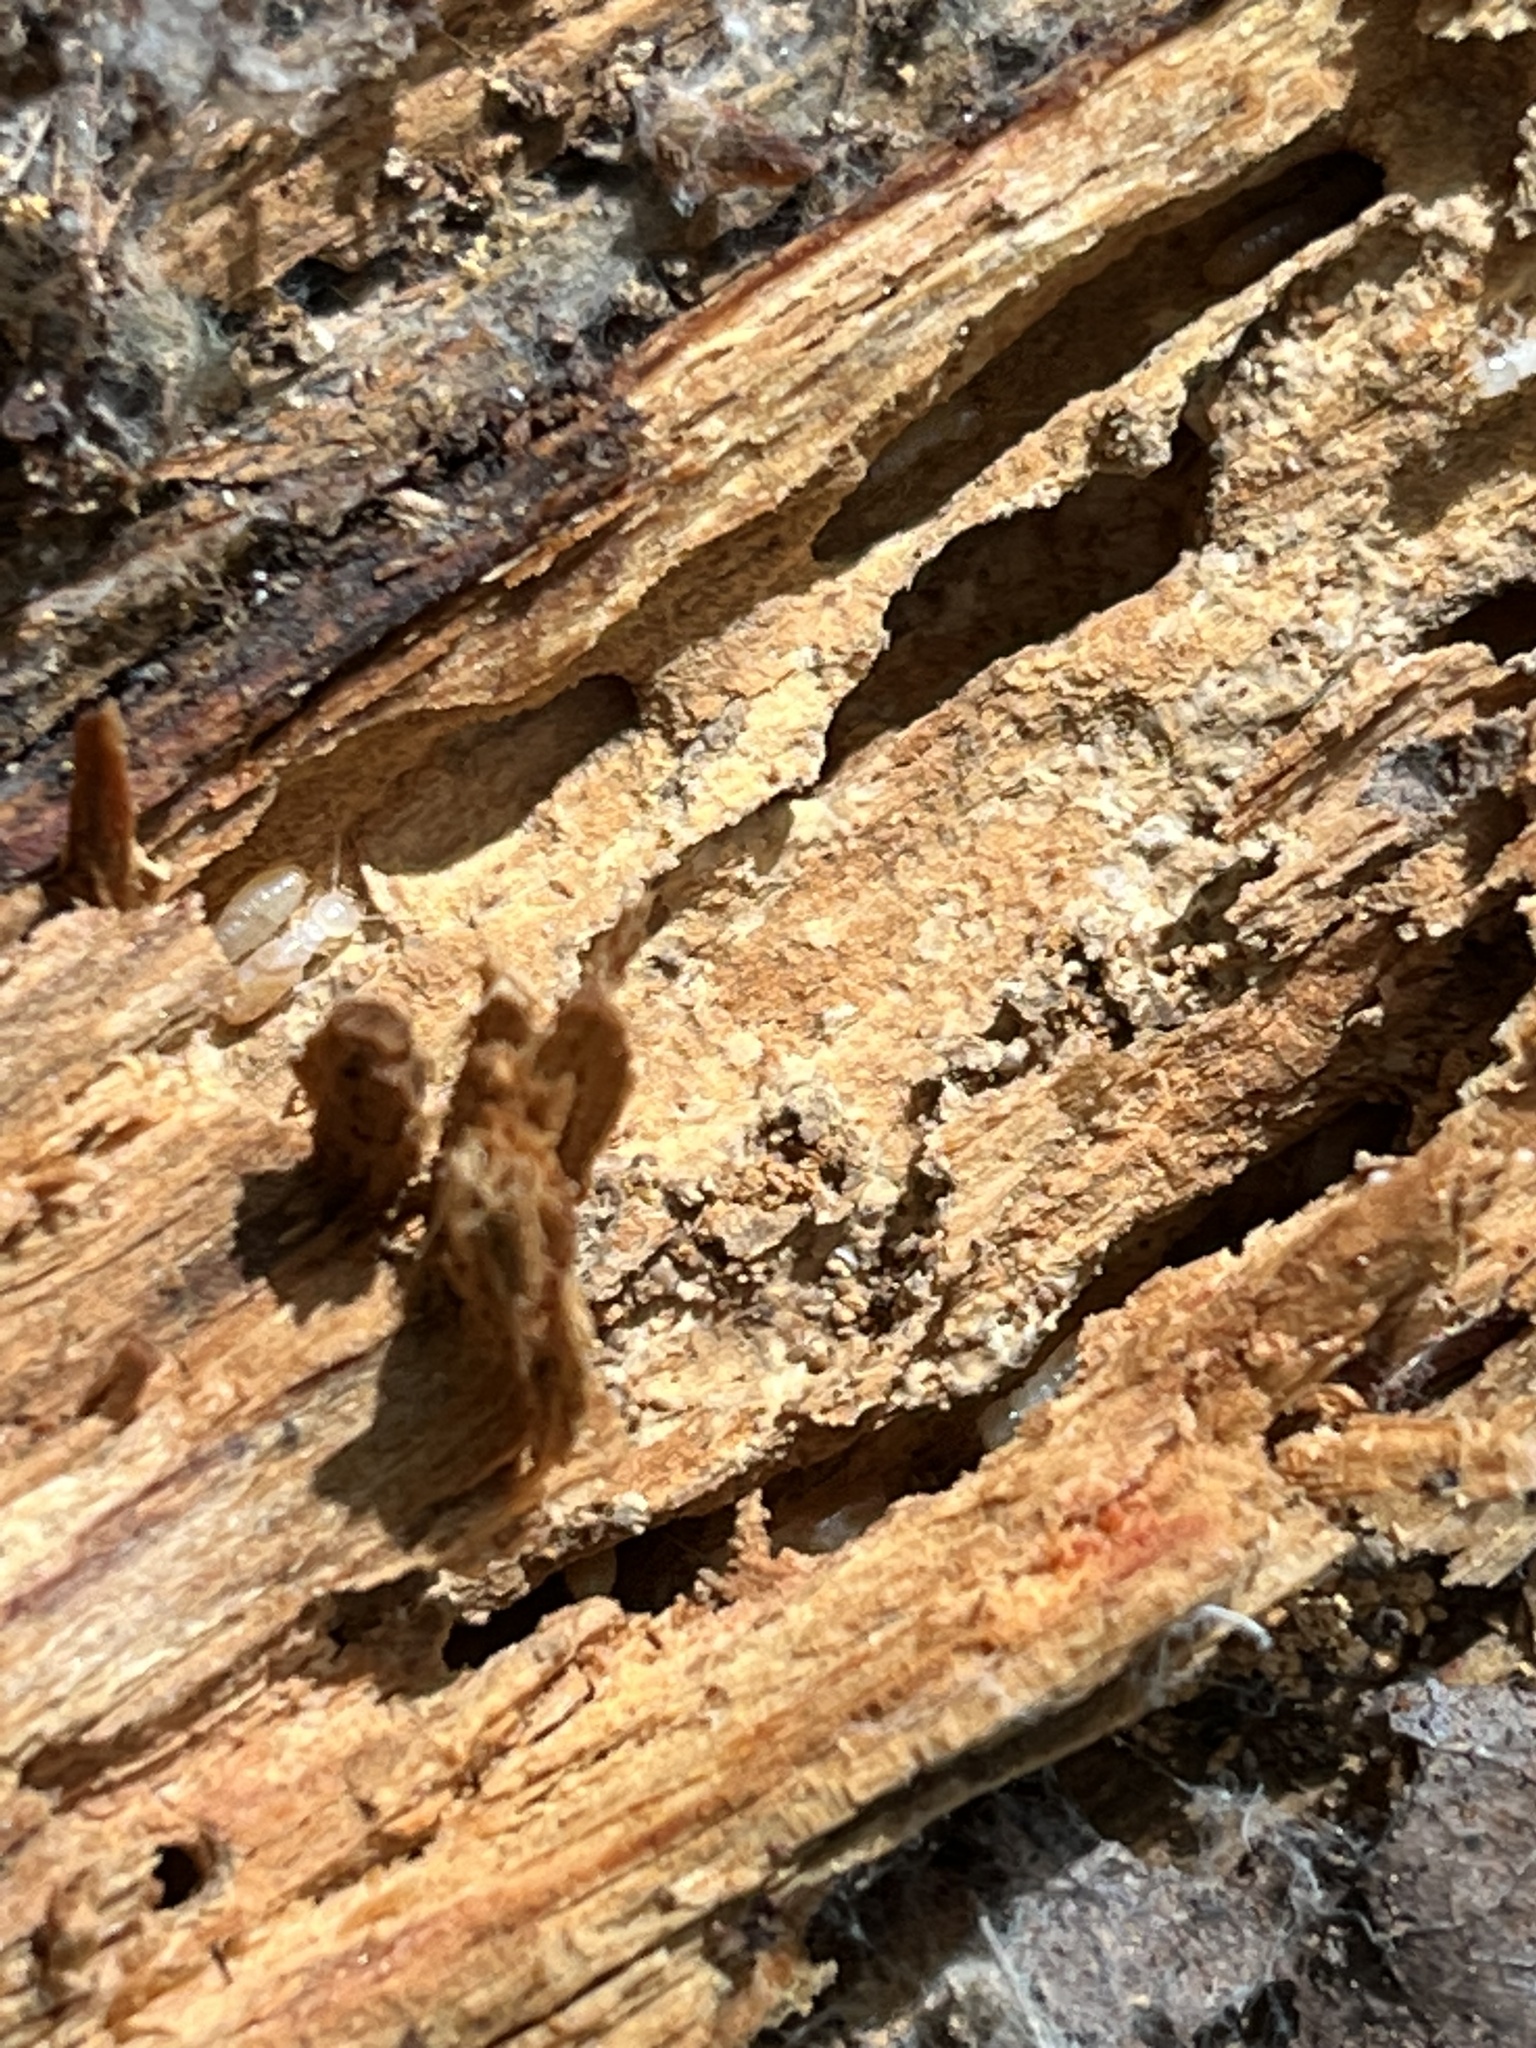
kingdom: Animalia
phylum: Arthropoda
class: Insecta
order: Blattodea
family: Rhinotermitidae
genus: Reticulitermes
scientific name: Reticulitermes flavipes
